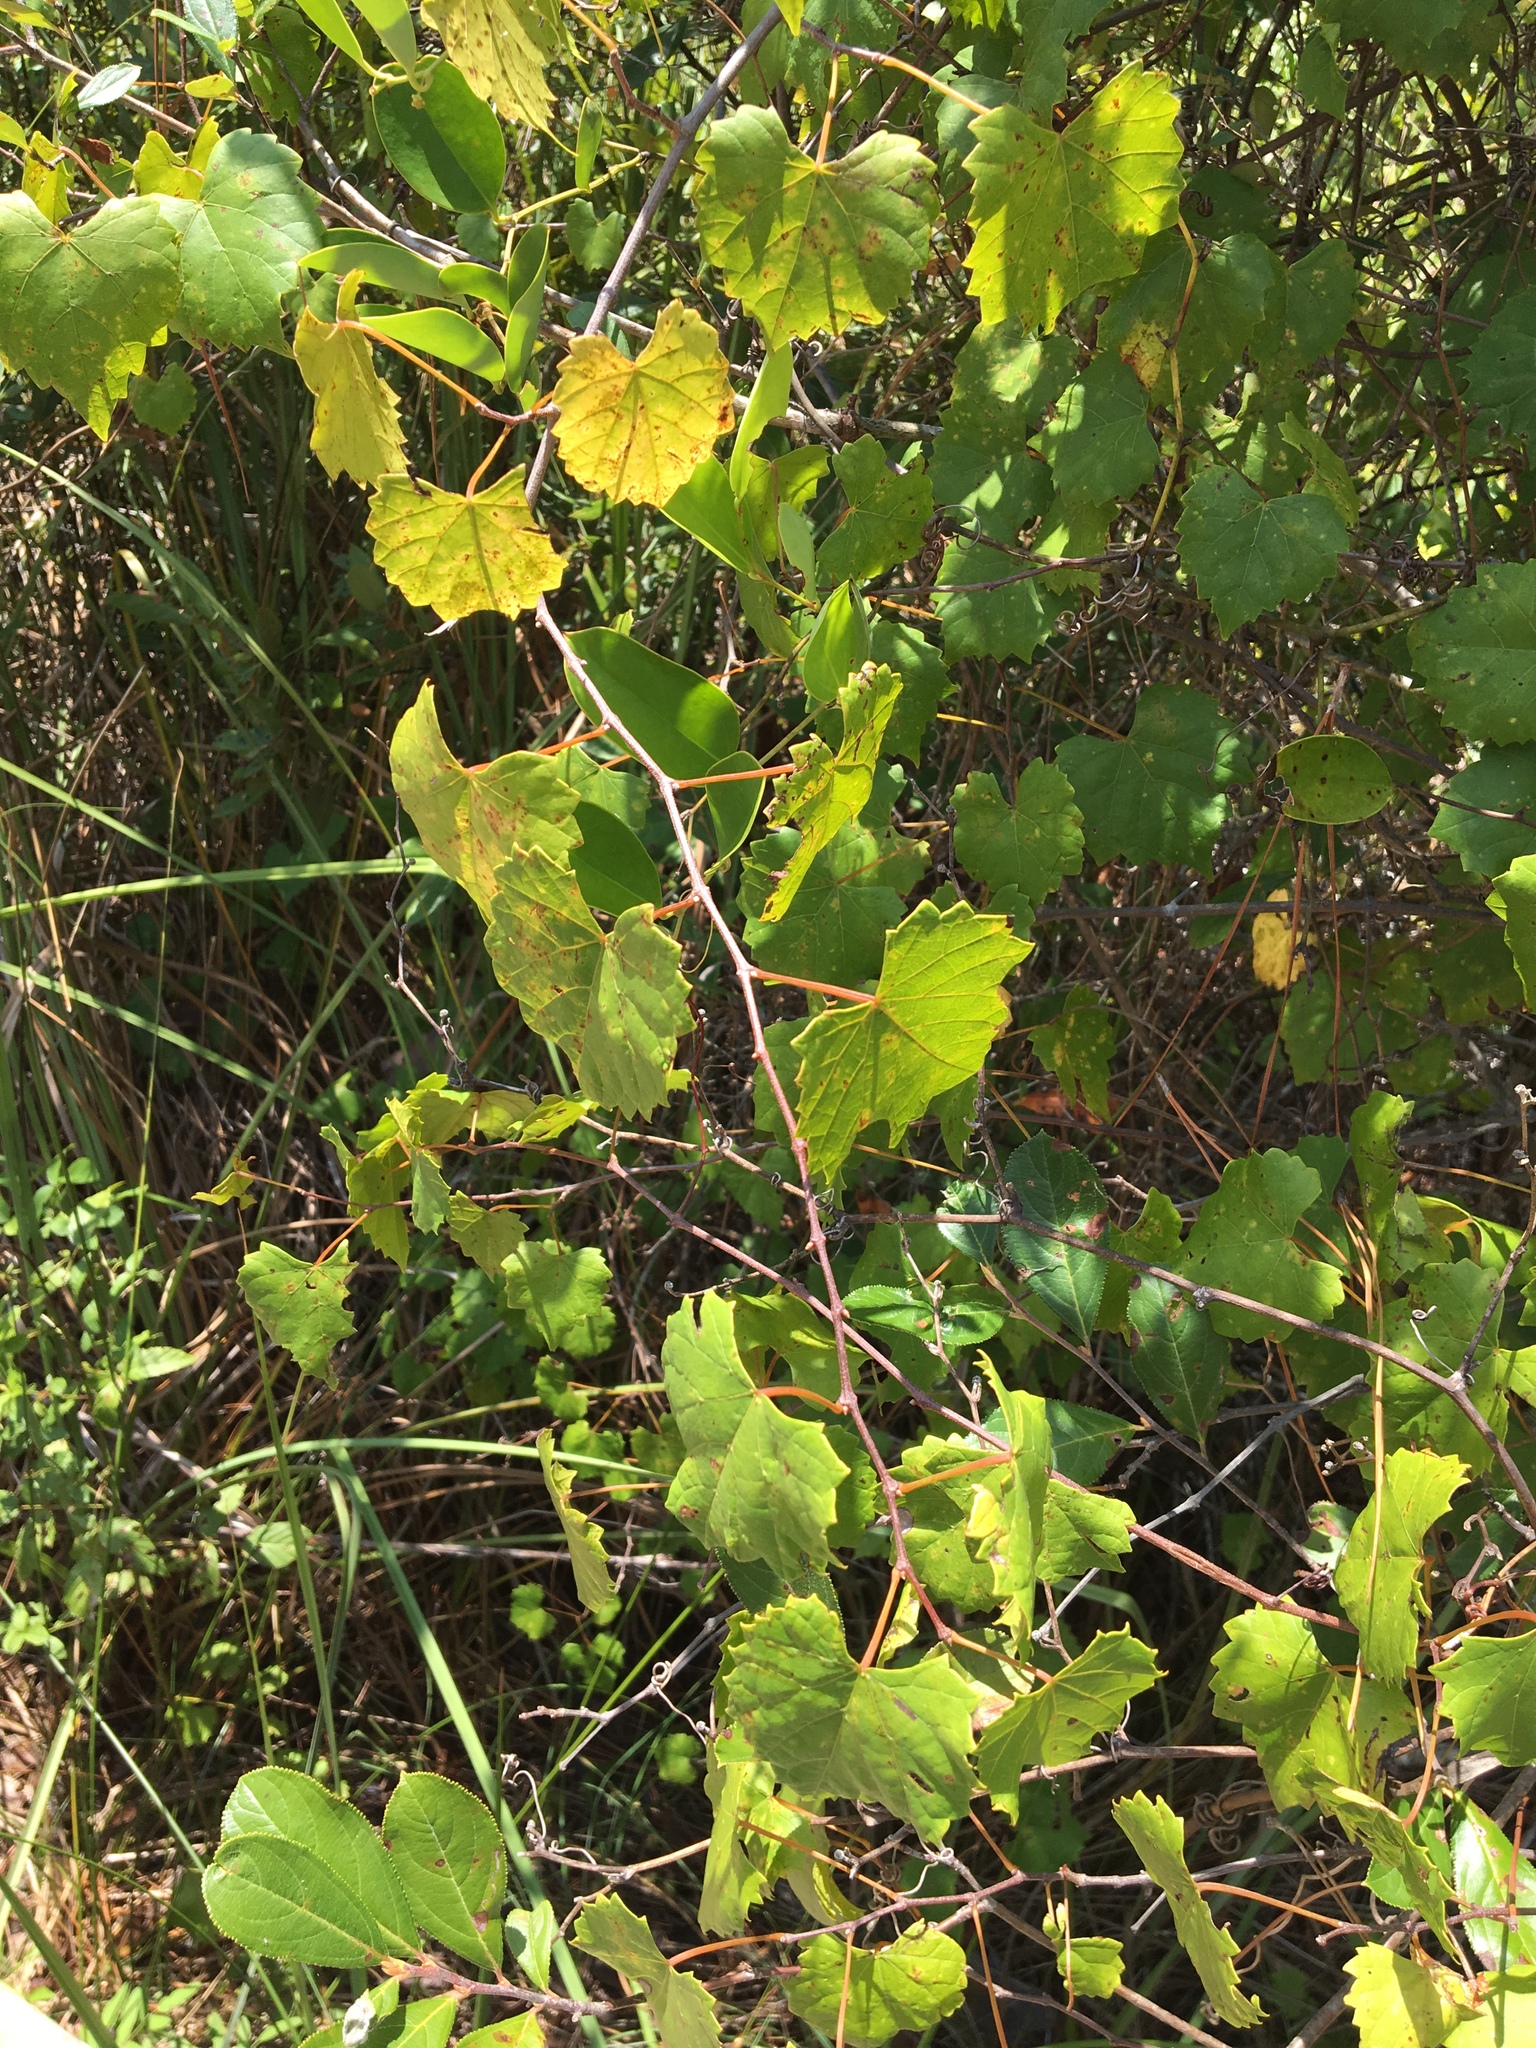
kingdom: Plantae
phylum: Tracheophyta
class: Magnoliopsida
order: Vitales
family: Vitaceae
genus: Vitis
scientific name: Vitis rotundifolia
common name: Muscadine grape
